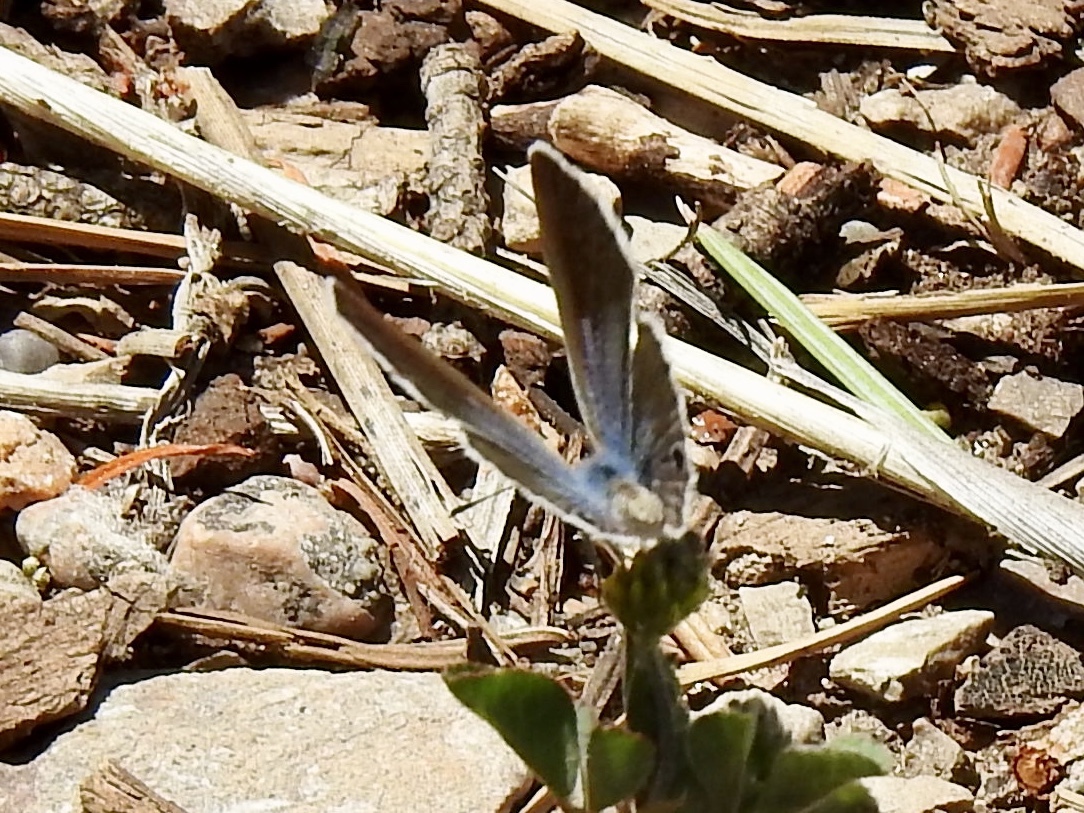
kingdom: Animalia
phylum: Arthropoda
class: Insecta
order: Lepidoptera
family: Lycaenidae
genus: Echinargus
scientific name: Echinargus isola
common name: Reakirt's blue
